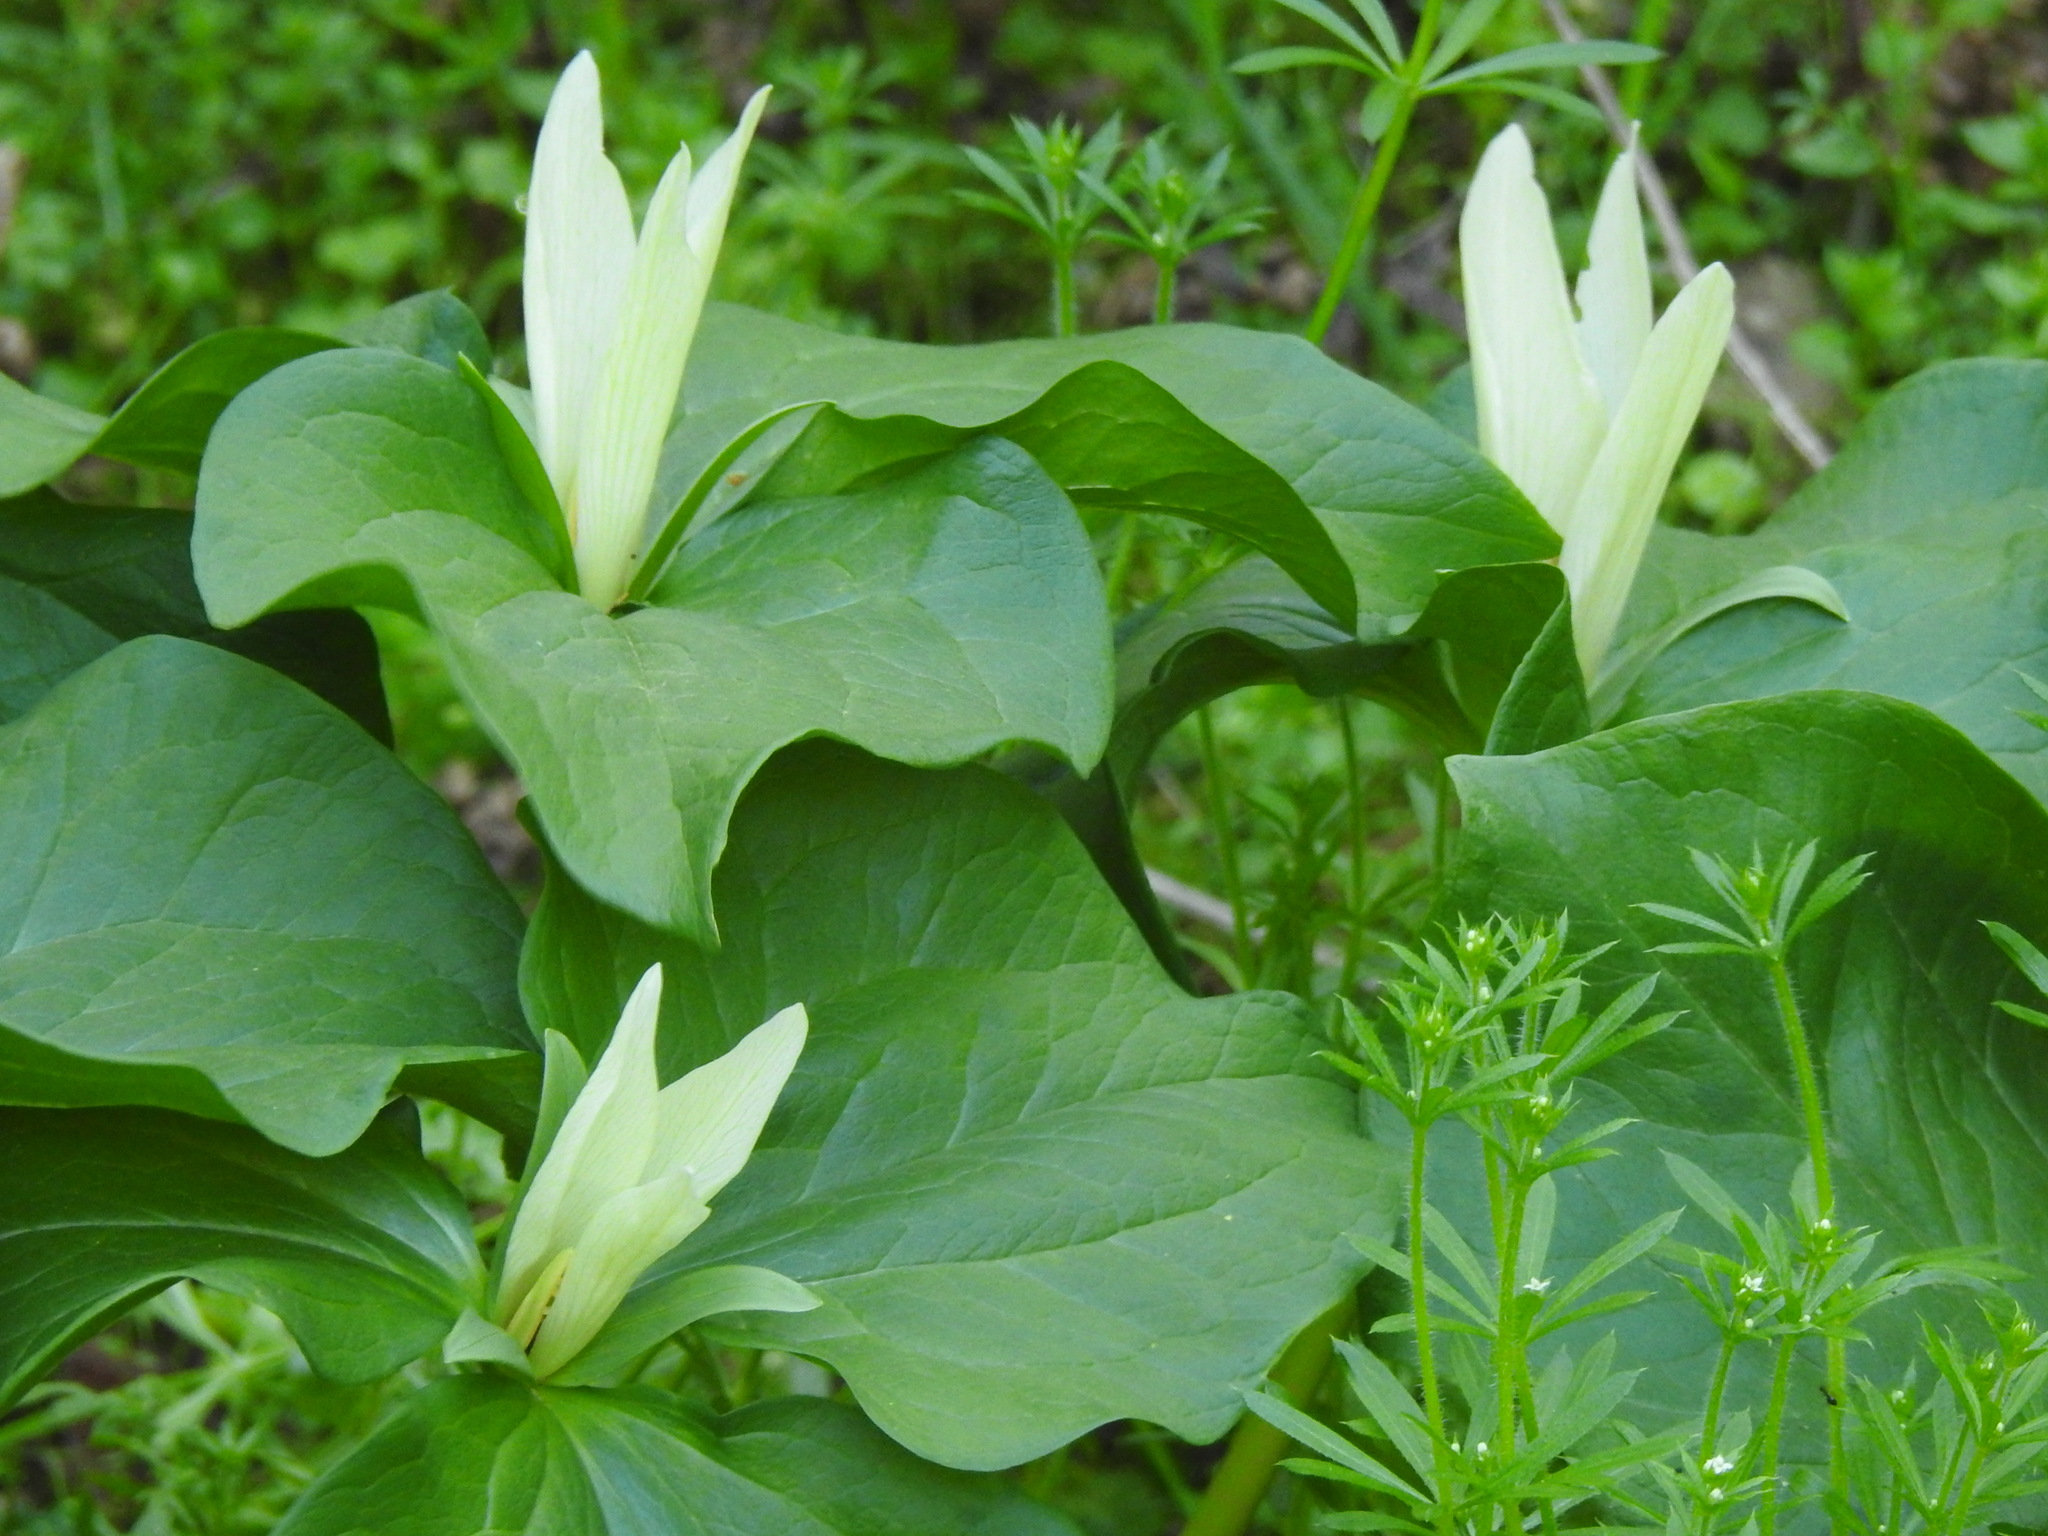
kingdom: Plantae
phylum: Tracheophyta
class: Liliopsida
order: Liliales
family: Melanthiaceae
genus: Trillium
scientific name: Trillium albidum
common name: Freeman's trillium
